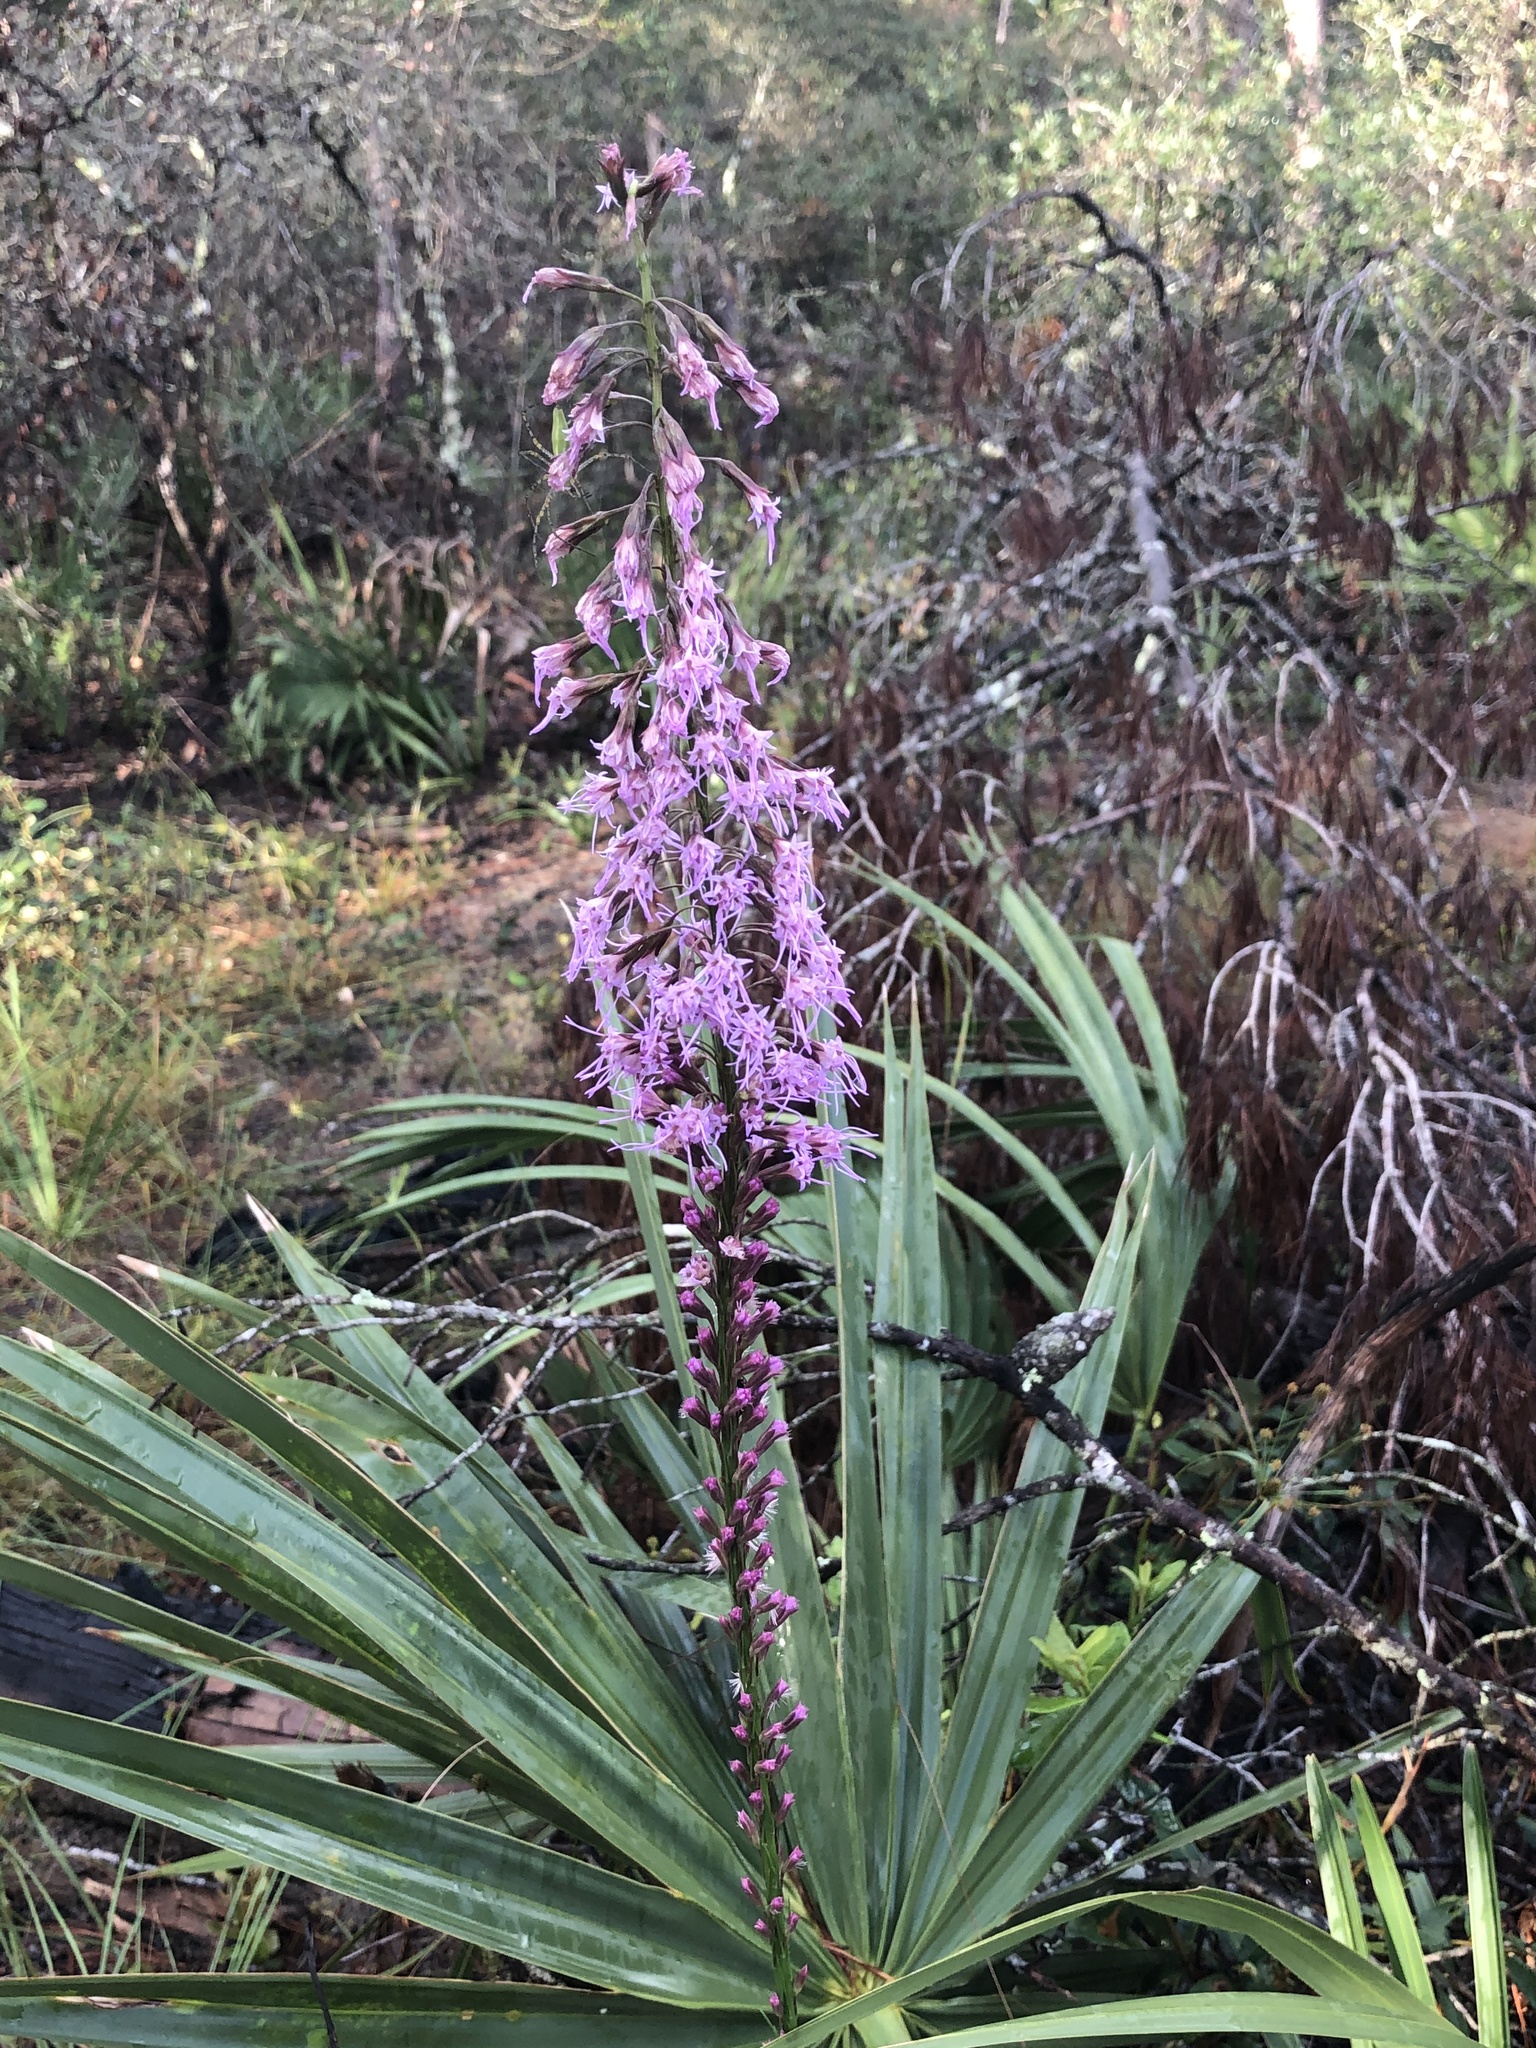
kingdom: Plantae
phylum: Tracheophyta
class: Magnoliopsida
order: Asterales
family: Asteraceae
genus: Liatris
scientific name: Liatris laevigata
